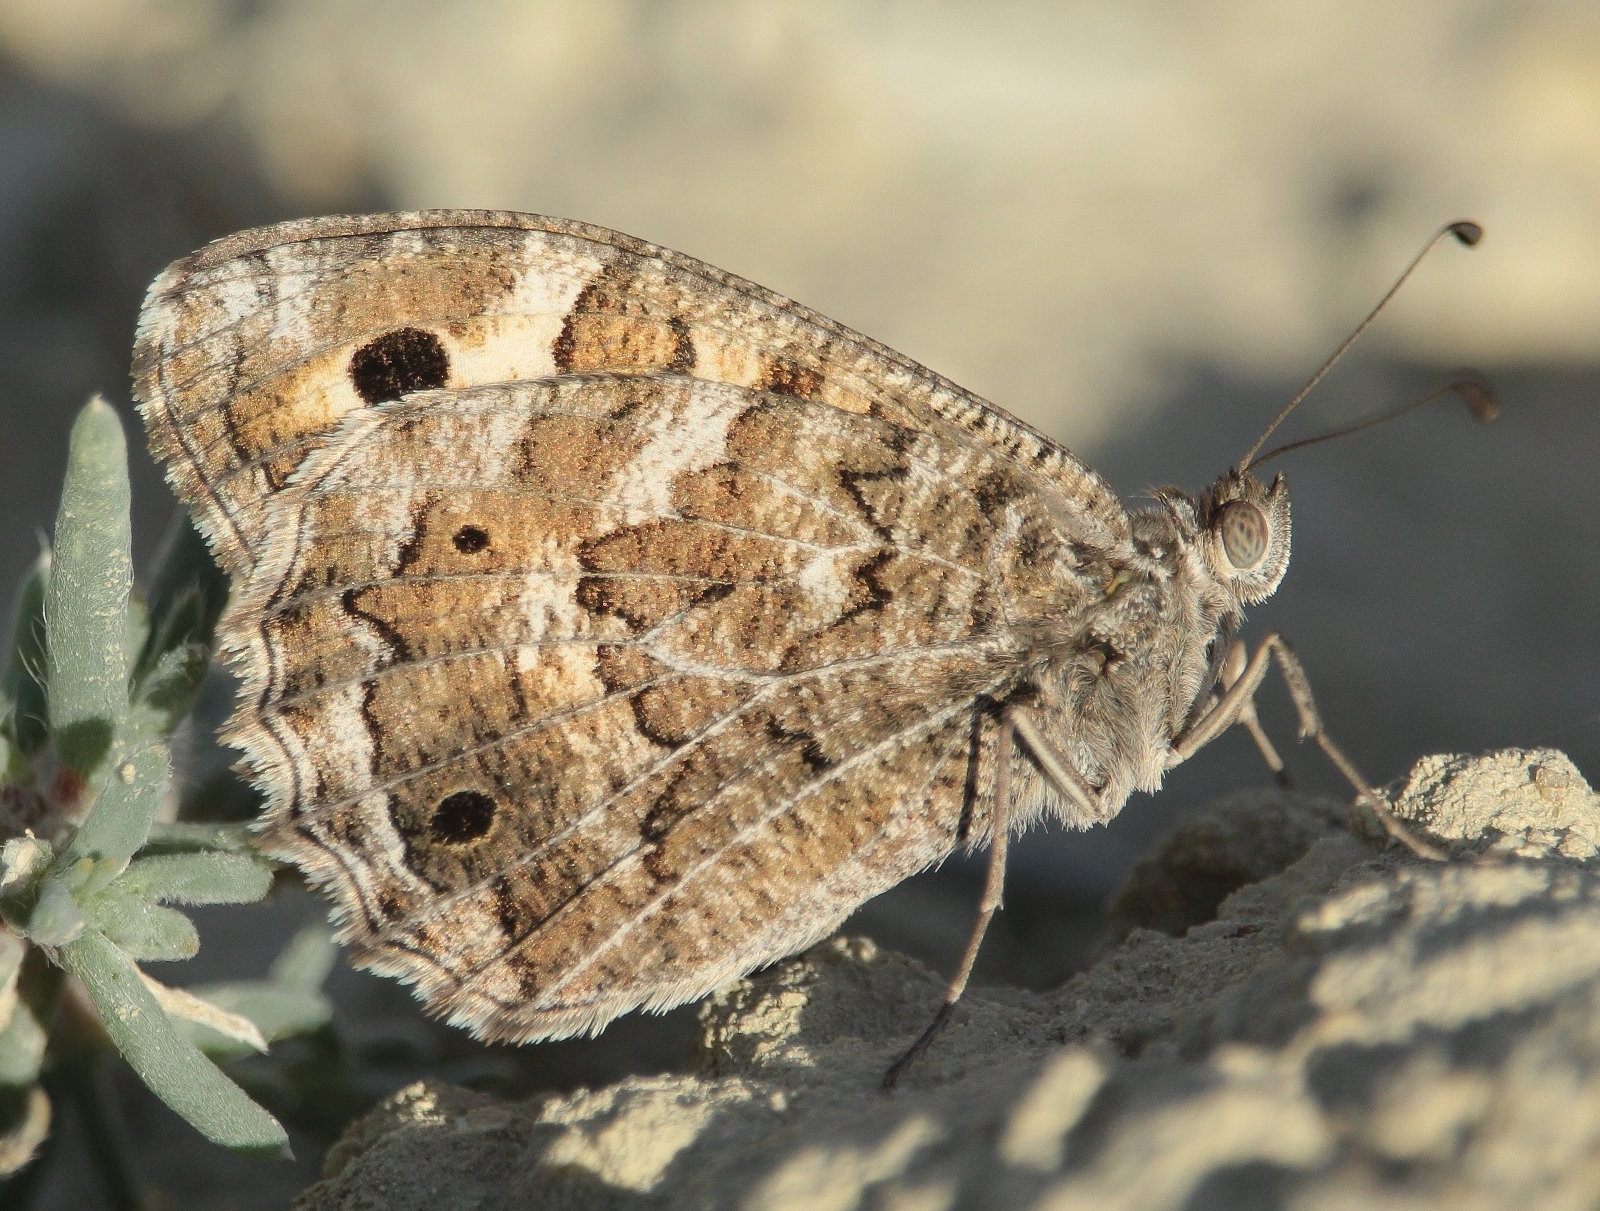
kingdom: Animalia
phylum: Arthropoda
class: Insecta
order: Lepidoptera
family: Nymphalidae
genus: Satyrus
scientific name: Satyrus Chazara persephone
